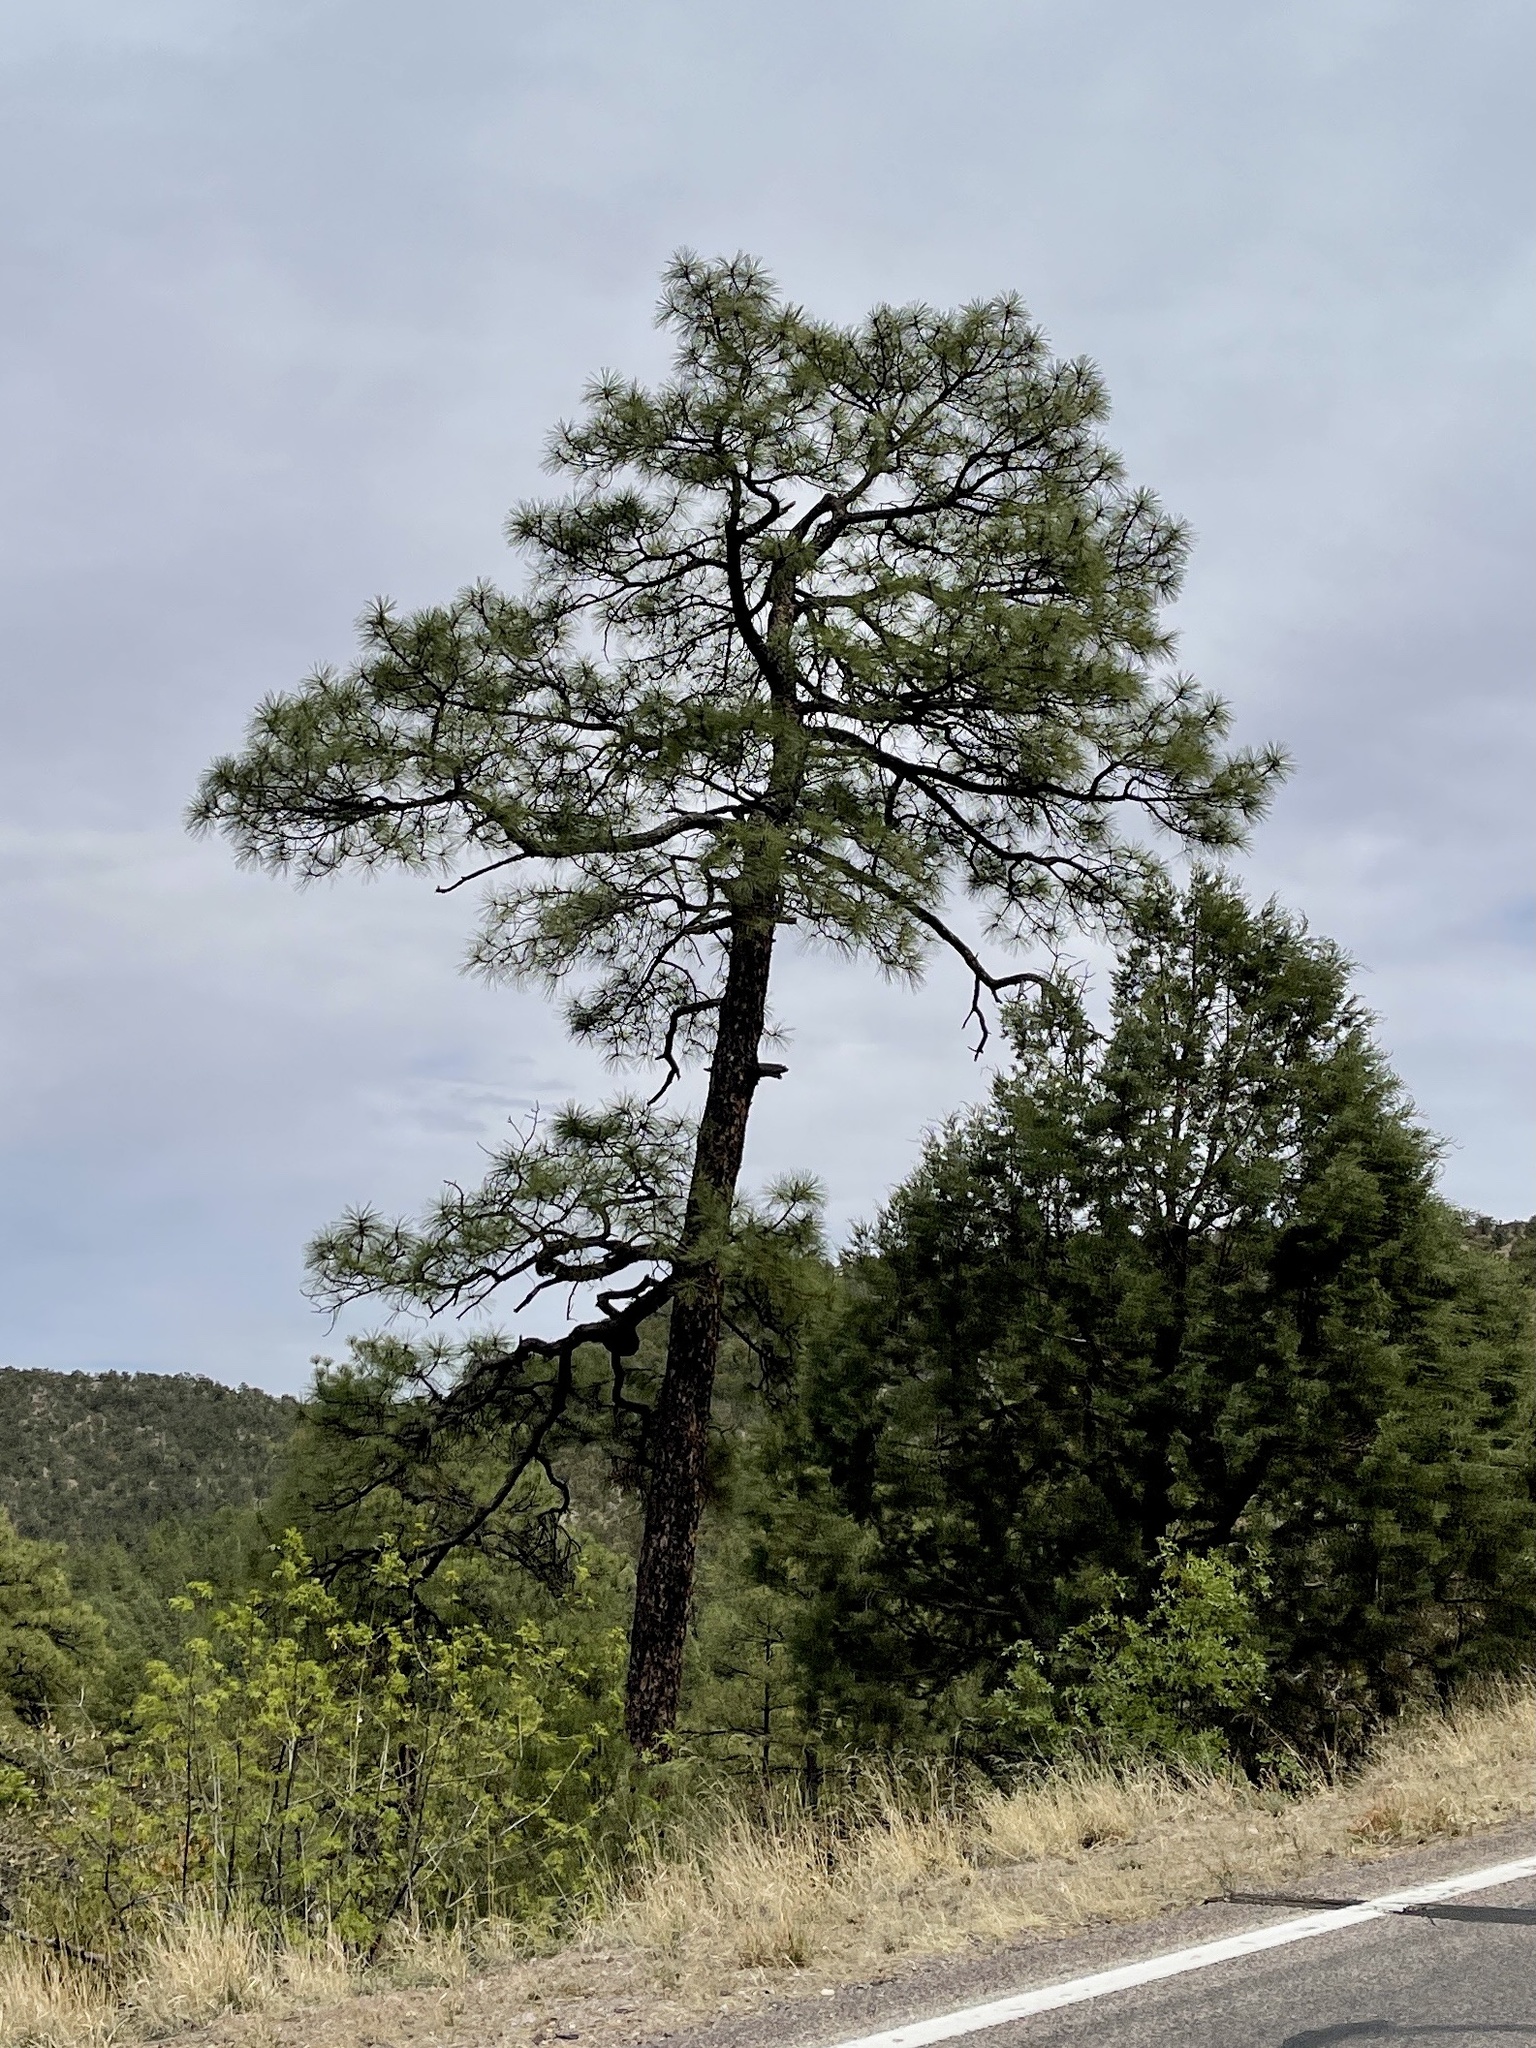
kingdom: Plantae
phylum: Tracheophyta
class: Pinopsida
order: Pinales
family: Pinaceae
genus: Pinus
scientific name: Pinus ponderosa
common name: Western yellow-pine
